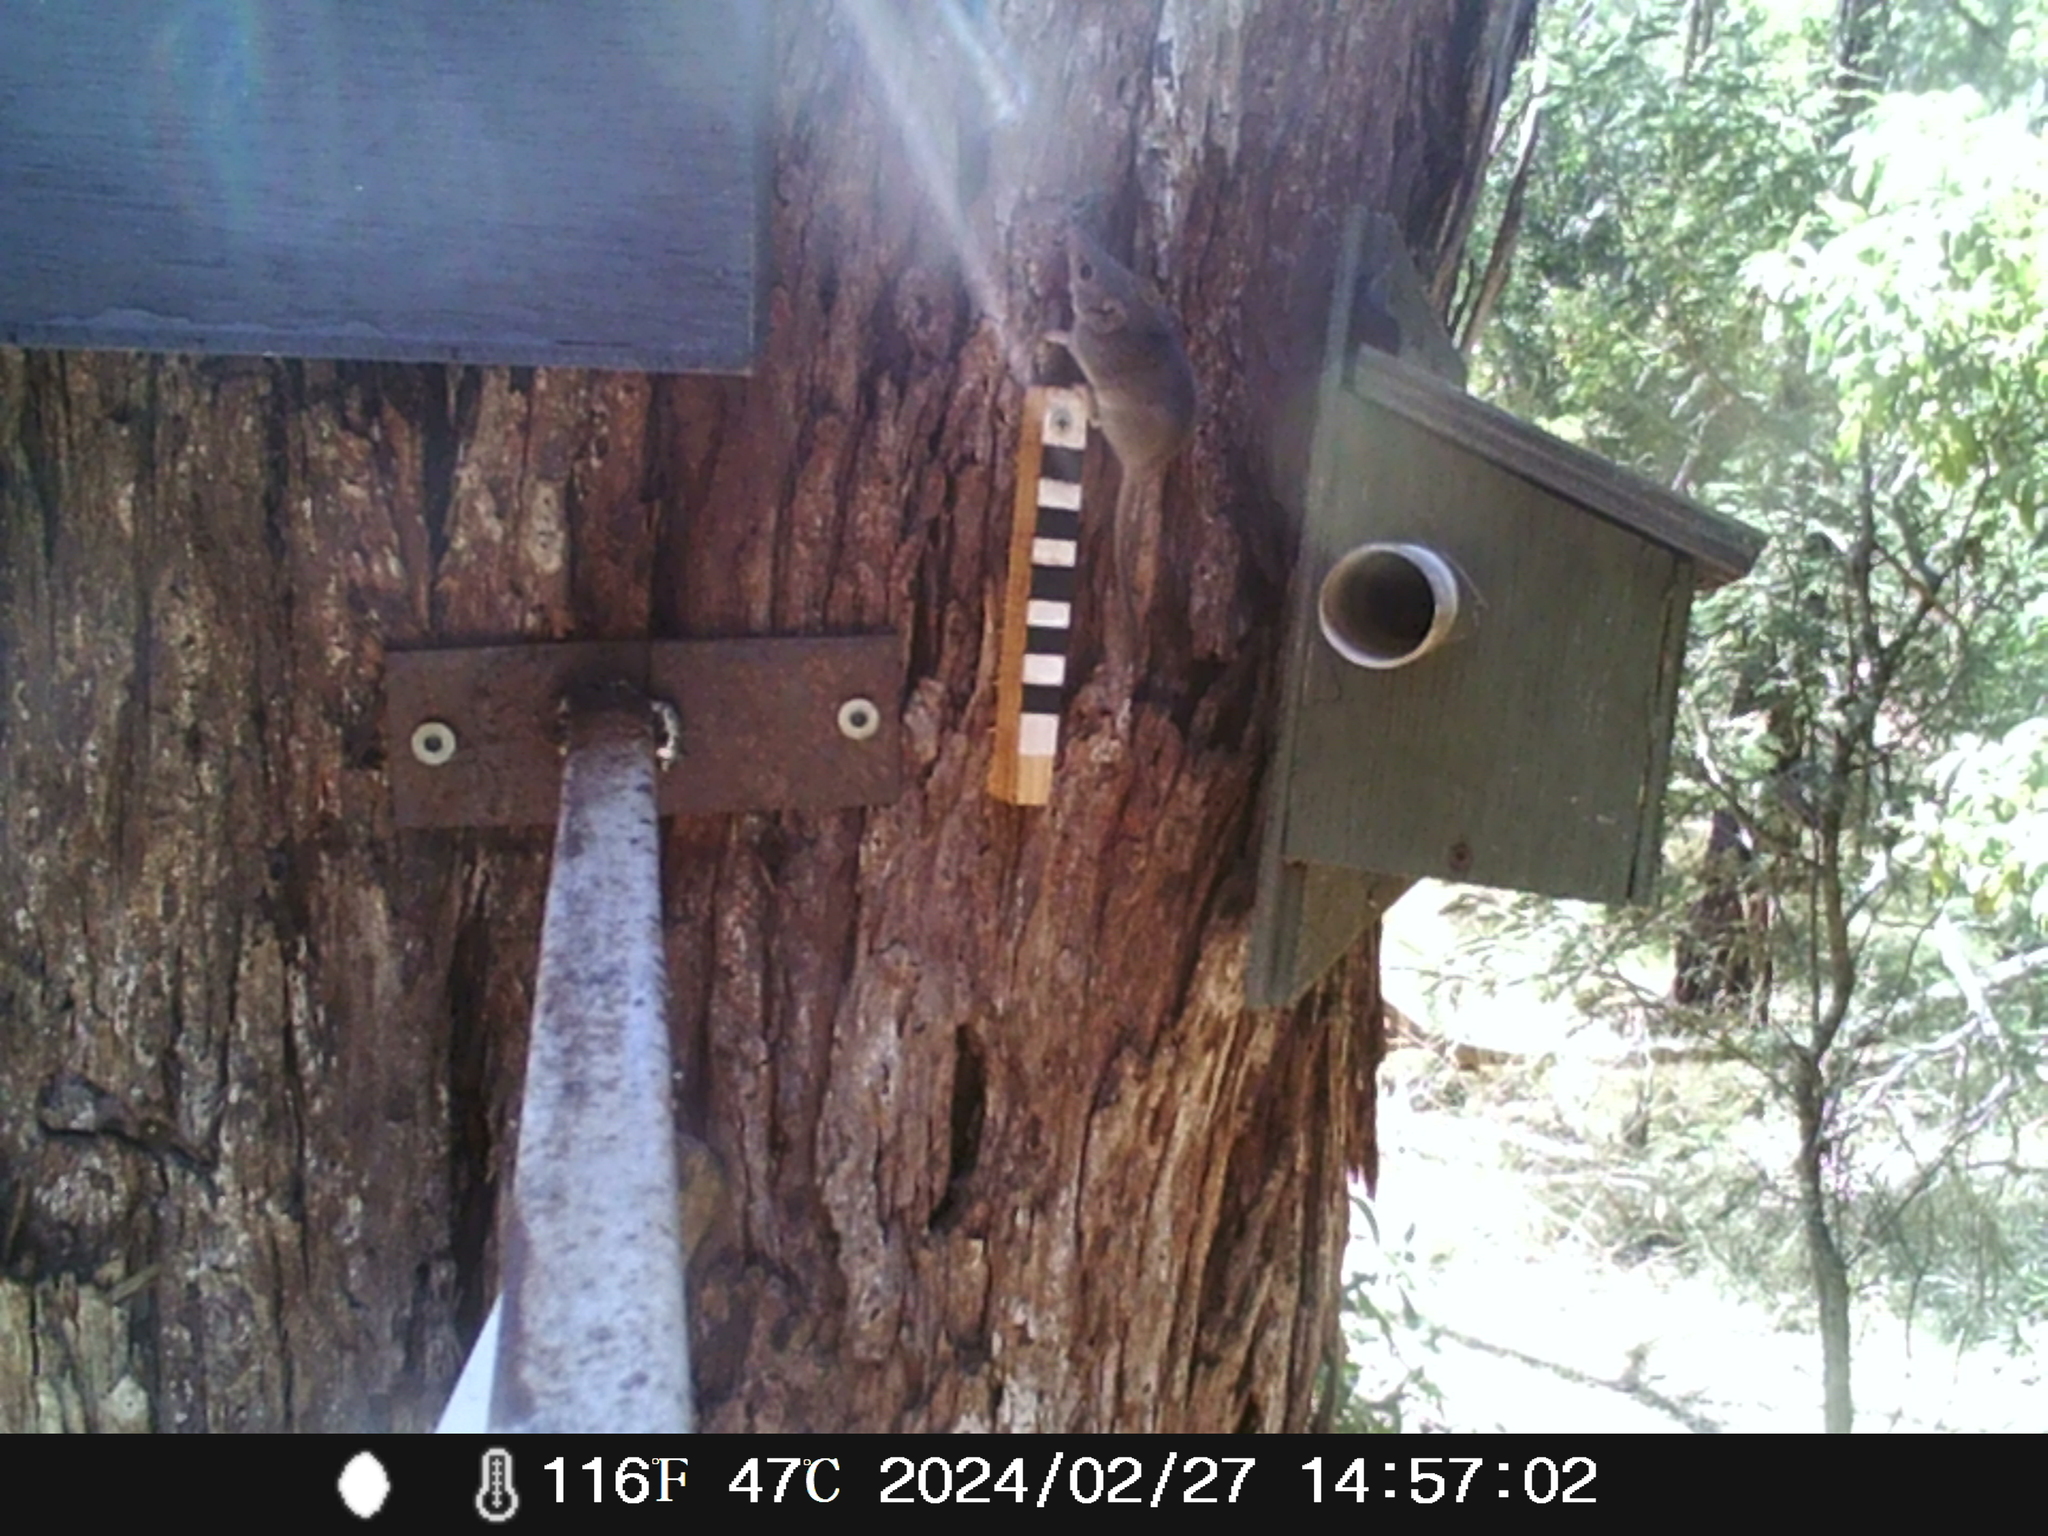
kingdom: Animalia
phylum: Chordata
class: Mammalia
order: Dasyuromorphia
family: Dasyuridae
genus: Antechinus
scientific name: Antechinus agilis
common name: Agile antechinus
